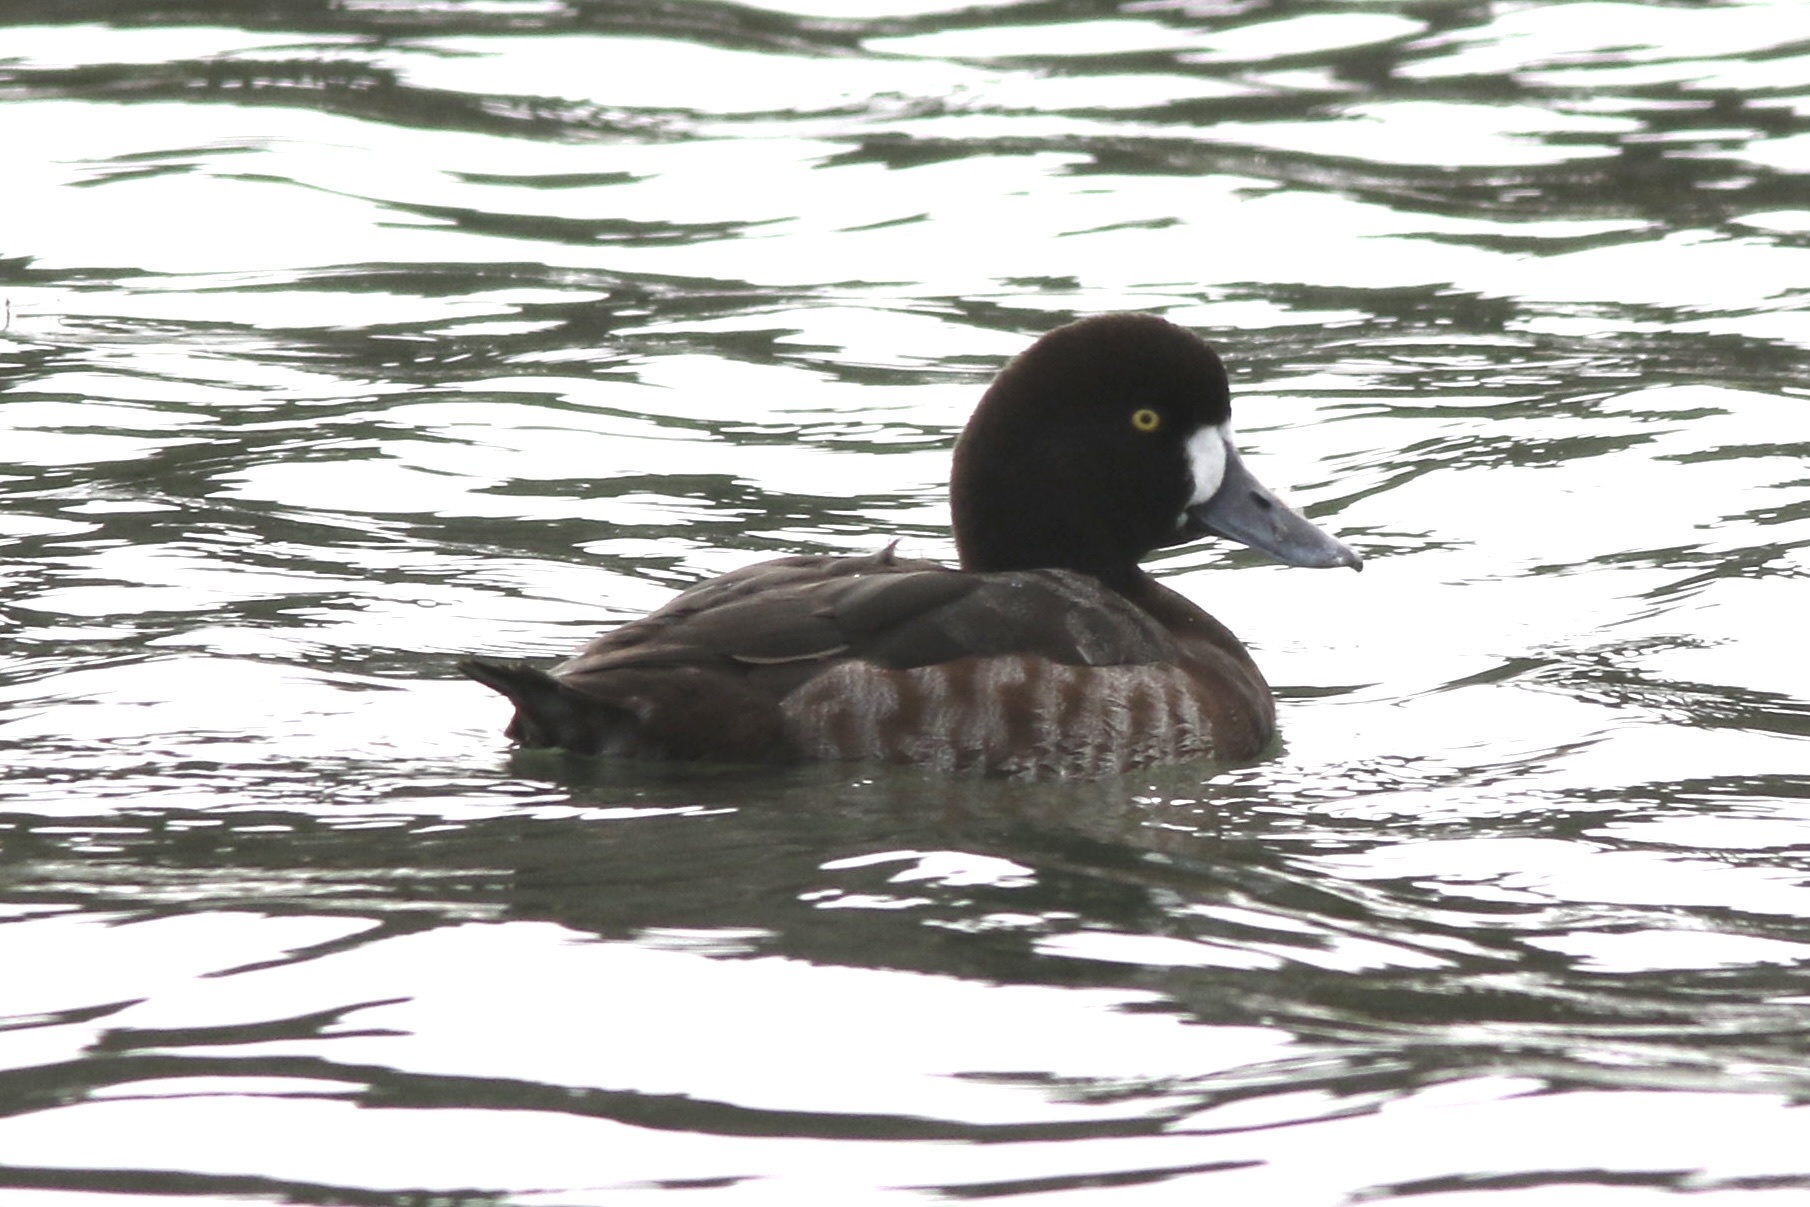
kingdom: Animalia
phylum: Chordata
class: Aves
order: Anseriformes
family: Anatidae
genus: Aythya
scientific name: Aythya marila
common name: Greater scaup
